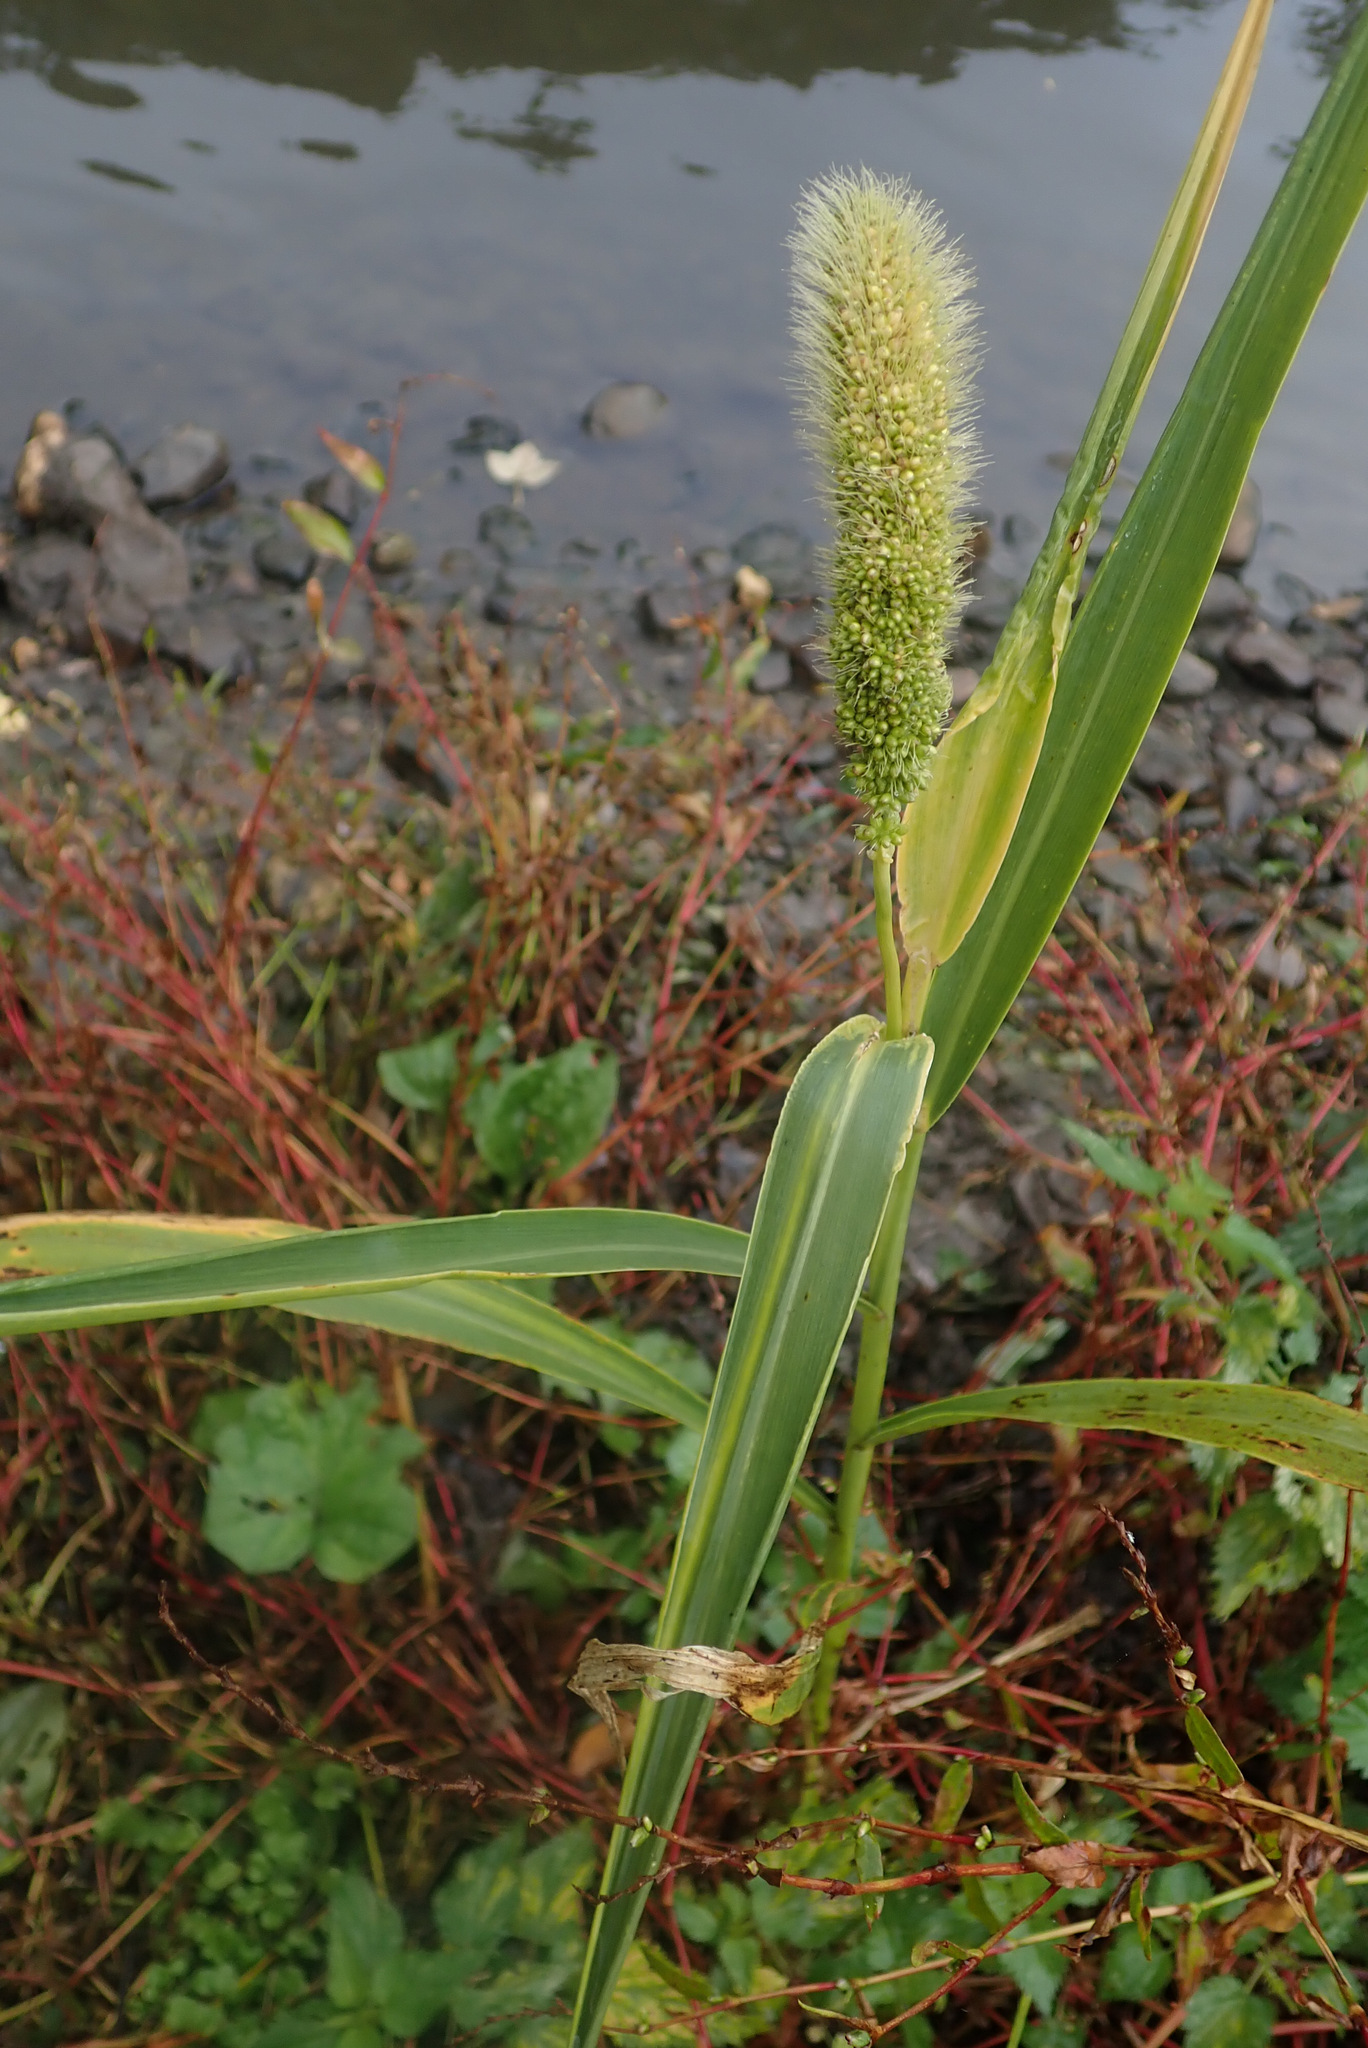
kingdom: Plantae
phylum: Tracheophyta
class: Liliopsida
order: Poales
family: Poaceae
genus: Setaria
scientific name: Setaria italica
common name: Foxtail bristle-grass
